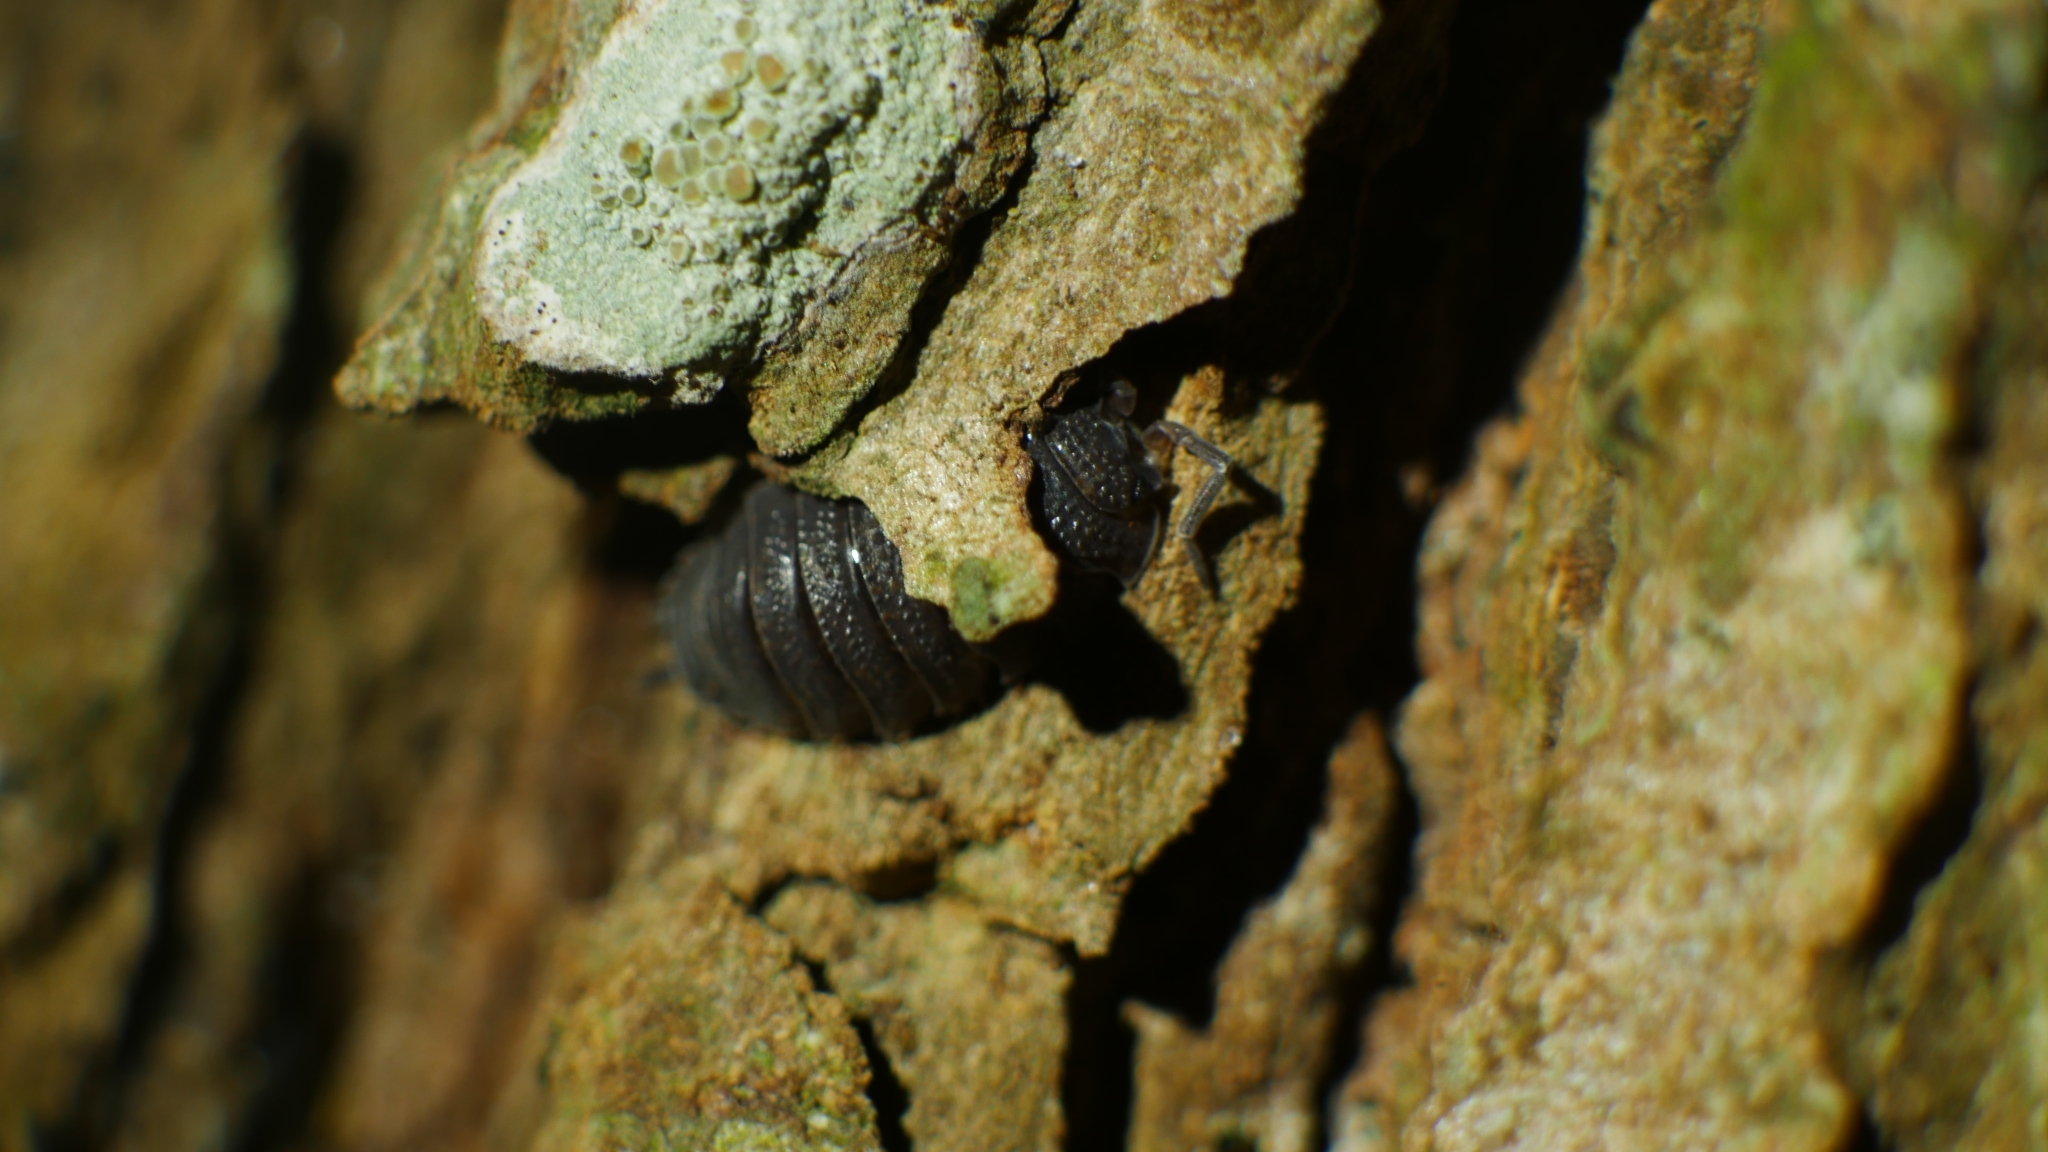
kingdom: Animalia
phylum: Arthropoda
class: Malacostraca
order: Isopoda
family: Porcellionidae
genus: Porcellio
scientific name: Porcellio scaber
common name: Common rough woodlouse
